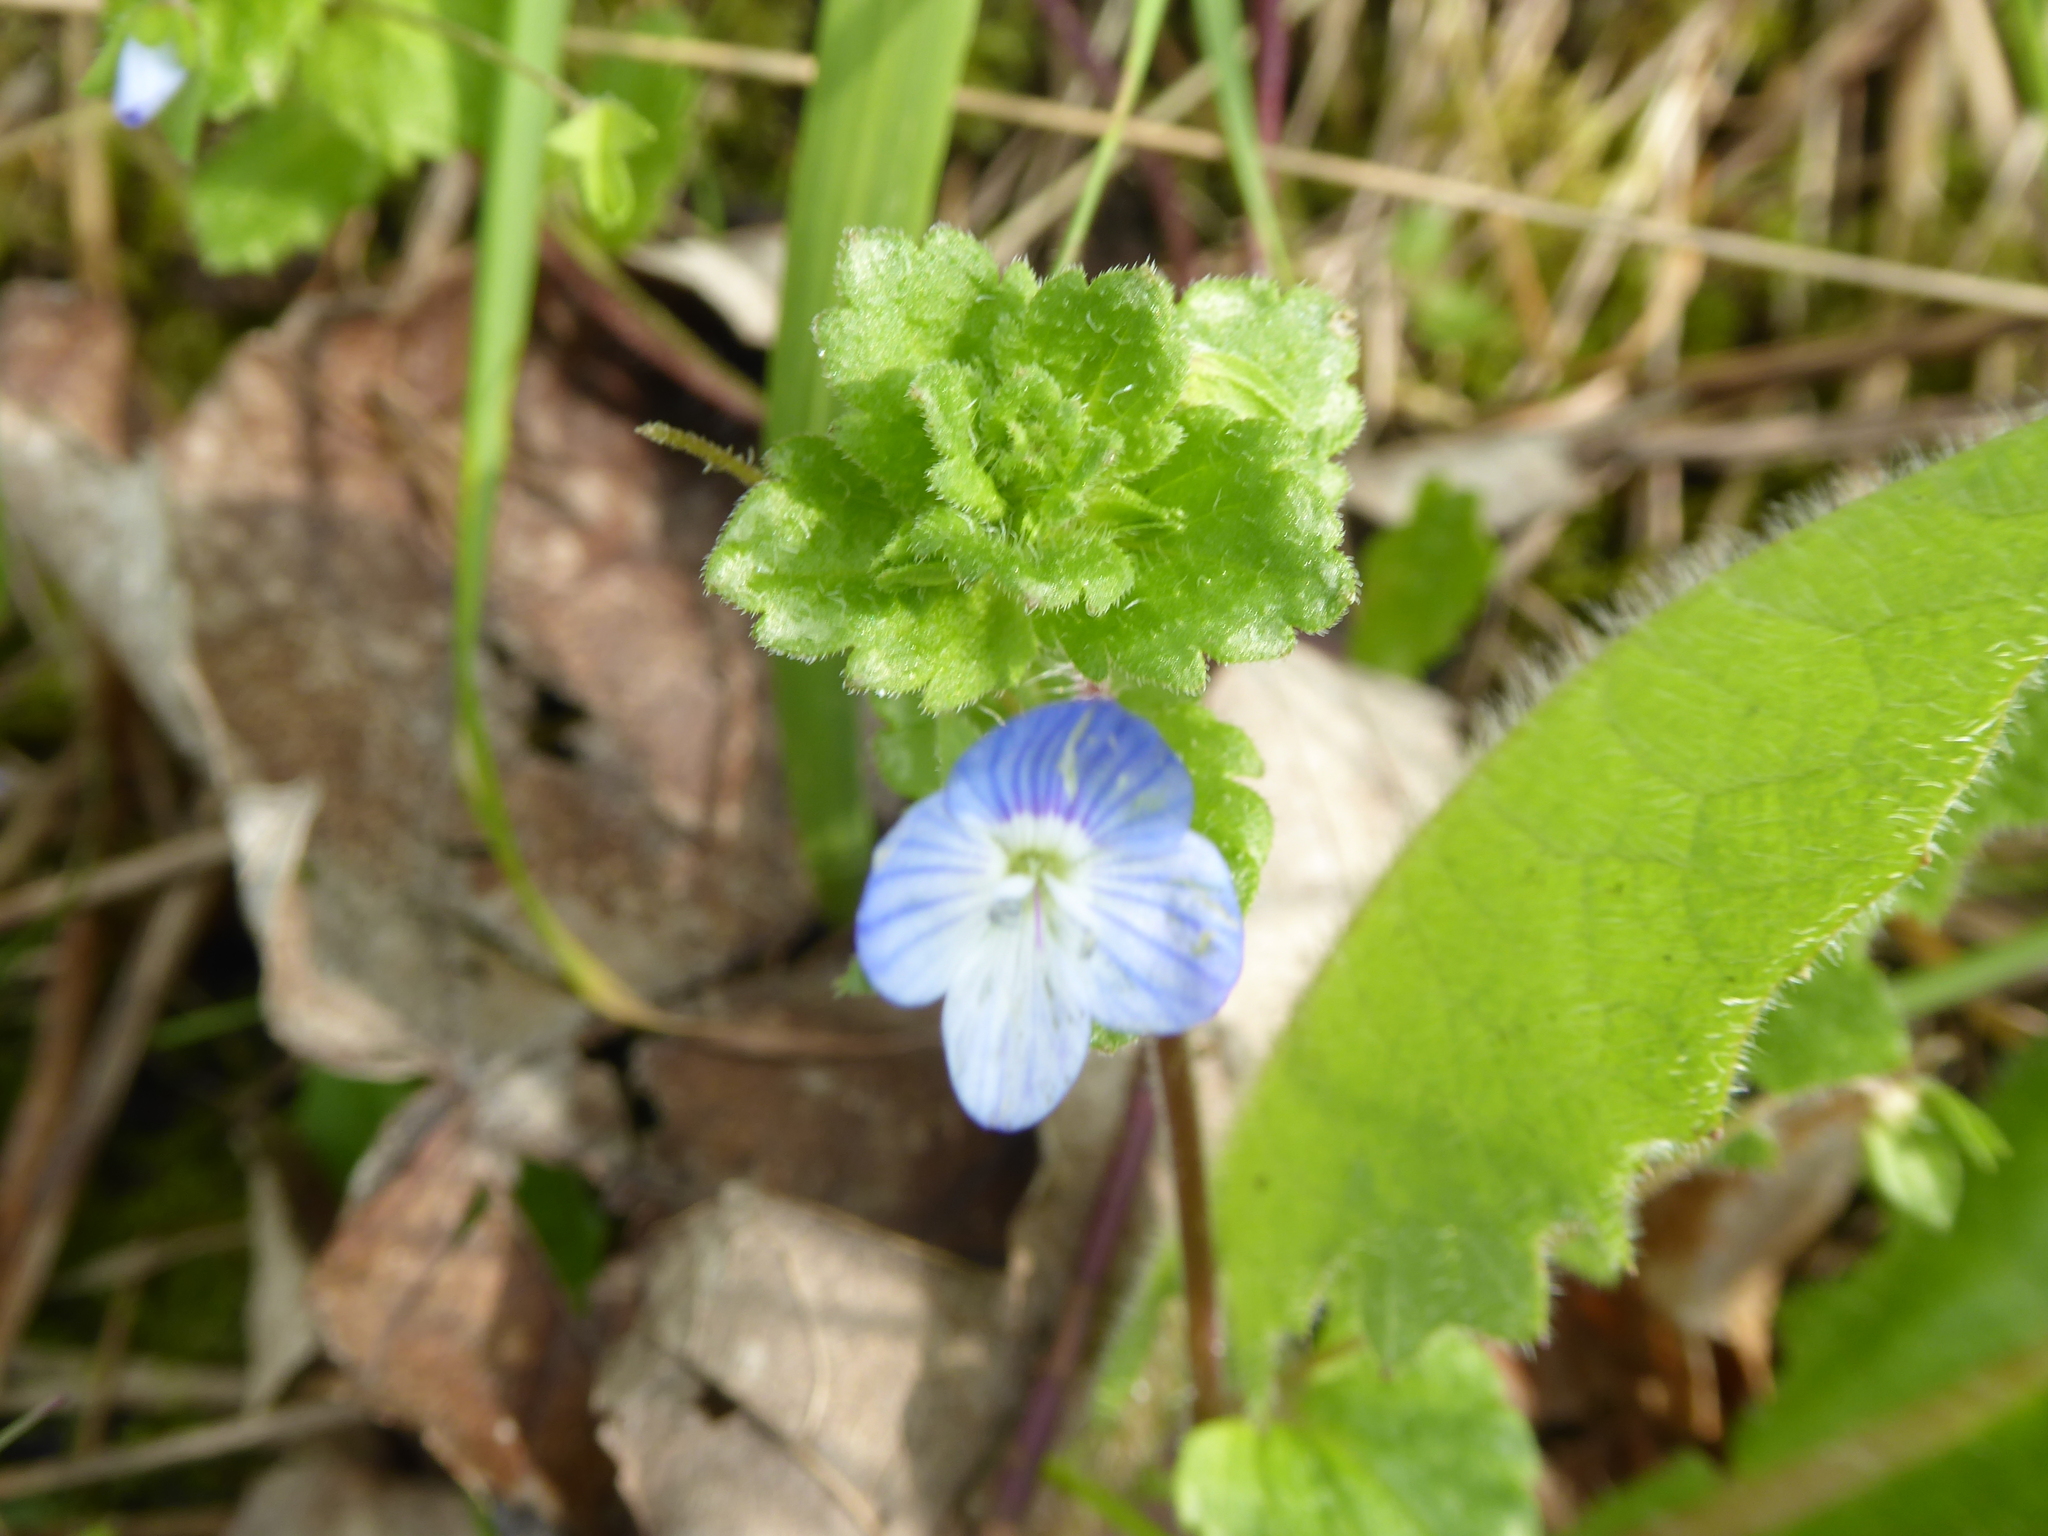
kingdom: Plantae
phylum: Tracheophyta
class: Magnoliopsida
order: Lamiales
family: Plantaginaceae
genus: Veronica
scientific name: Veronica persica
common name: Common field-speedwell
